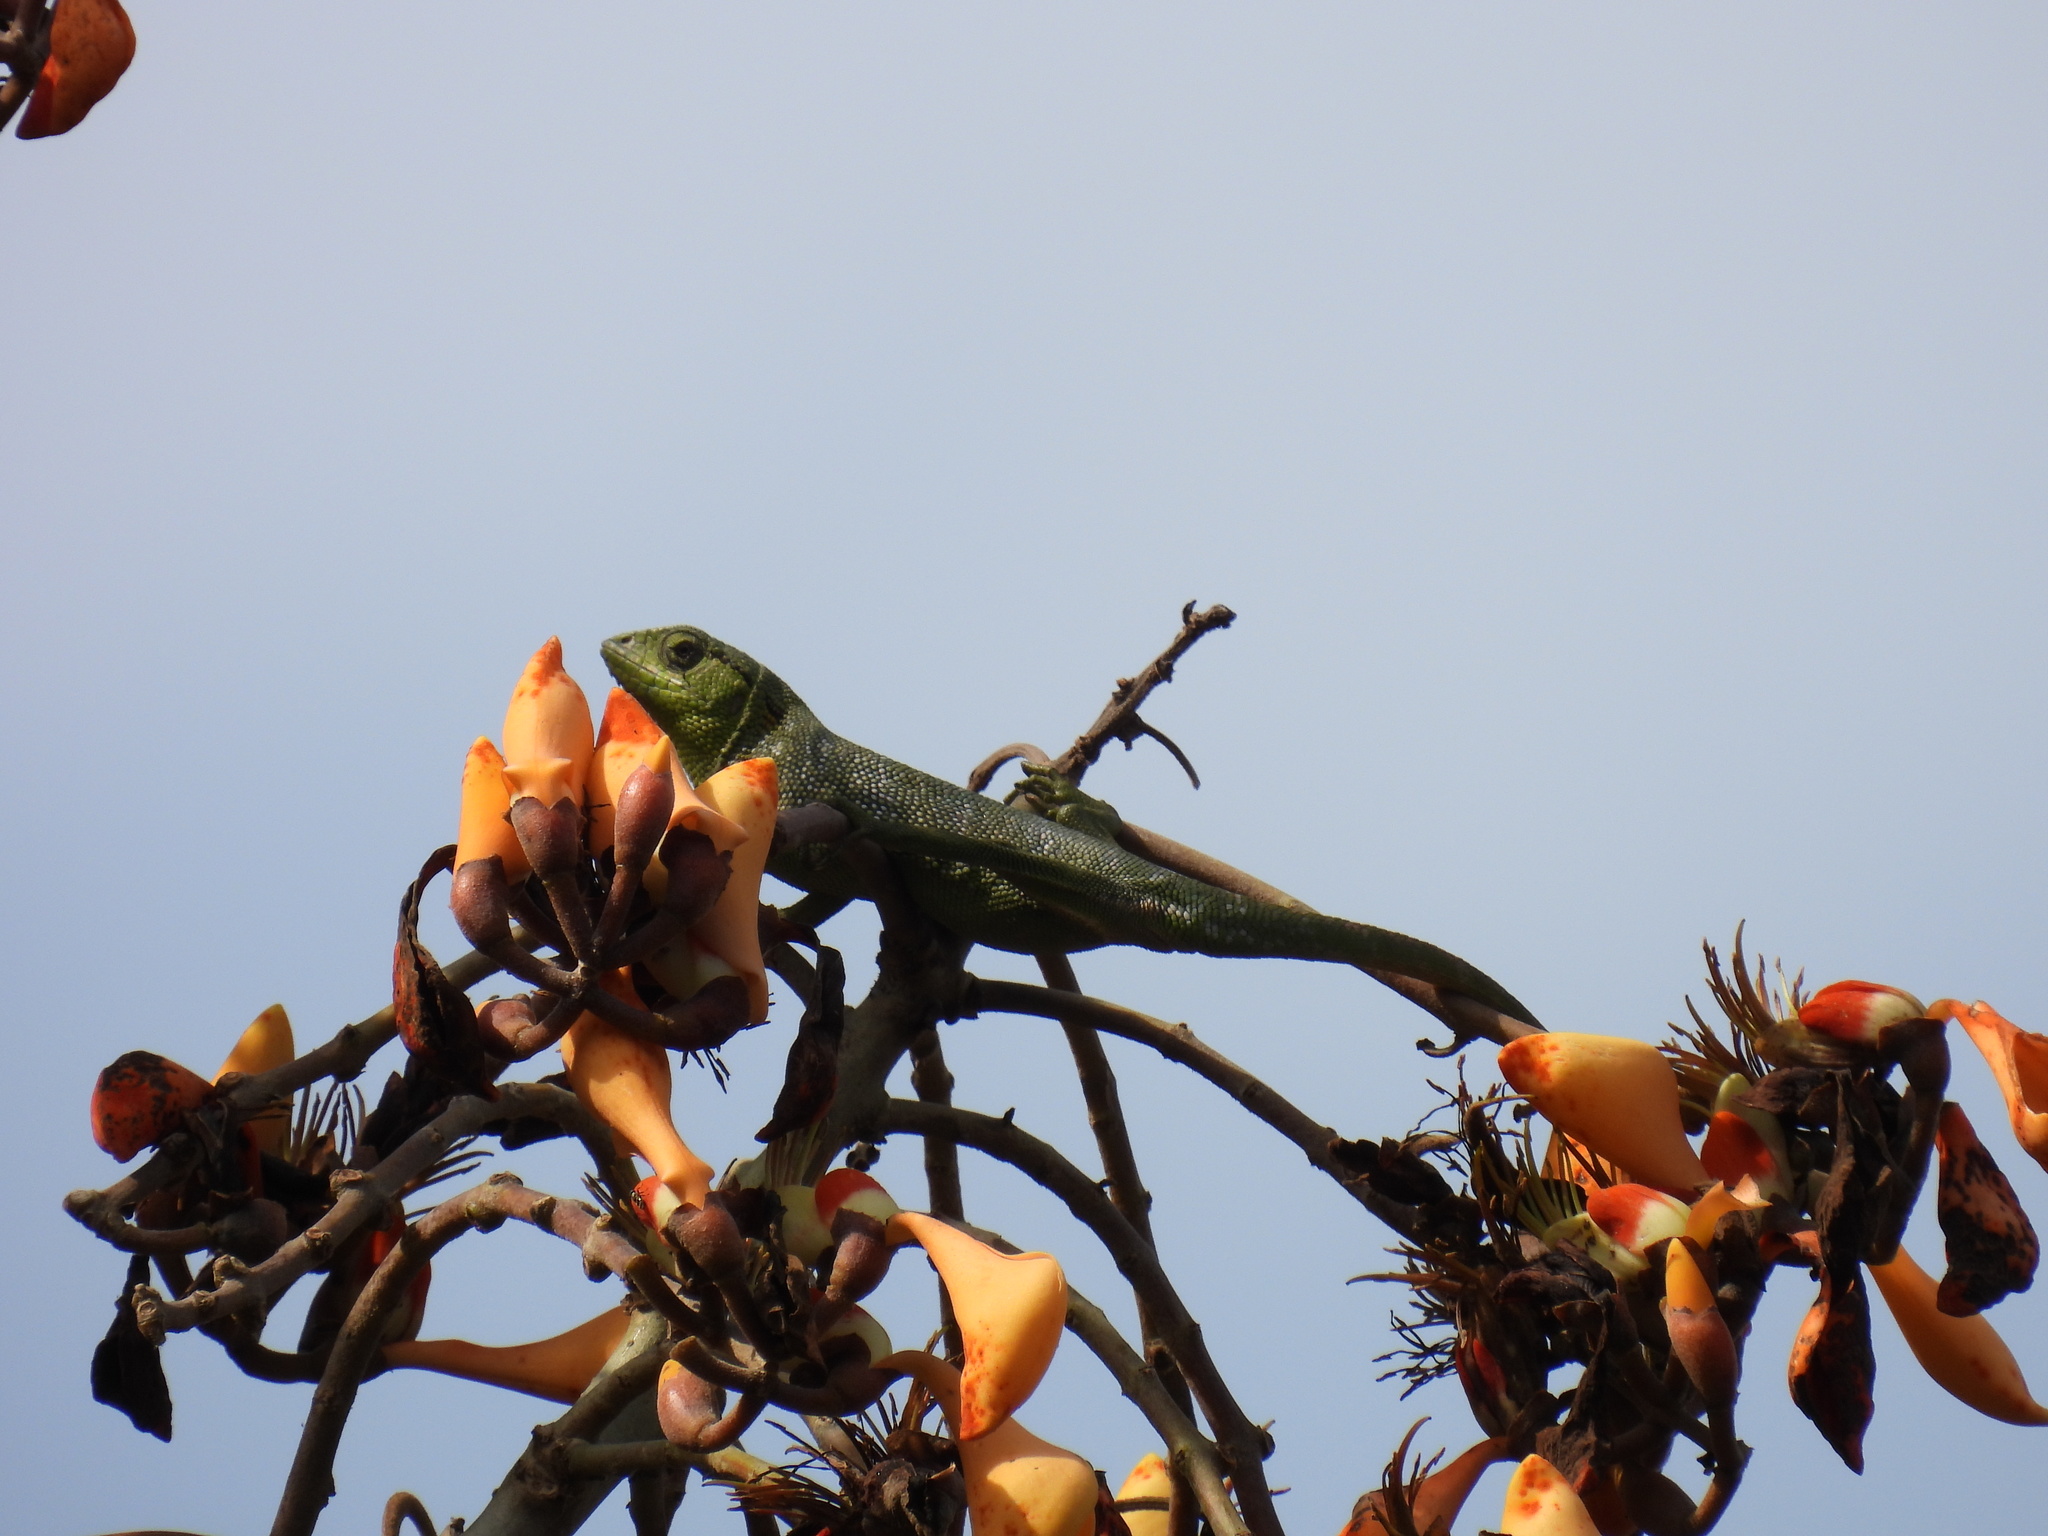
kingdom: Animalia
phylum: Chordata
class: Squamata
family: Polychrotidae
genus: Polychrus
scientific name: Polychrus marmoratus
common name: Many-colored bush anole
